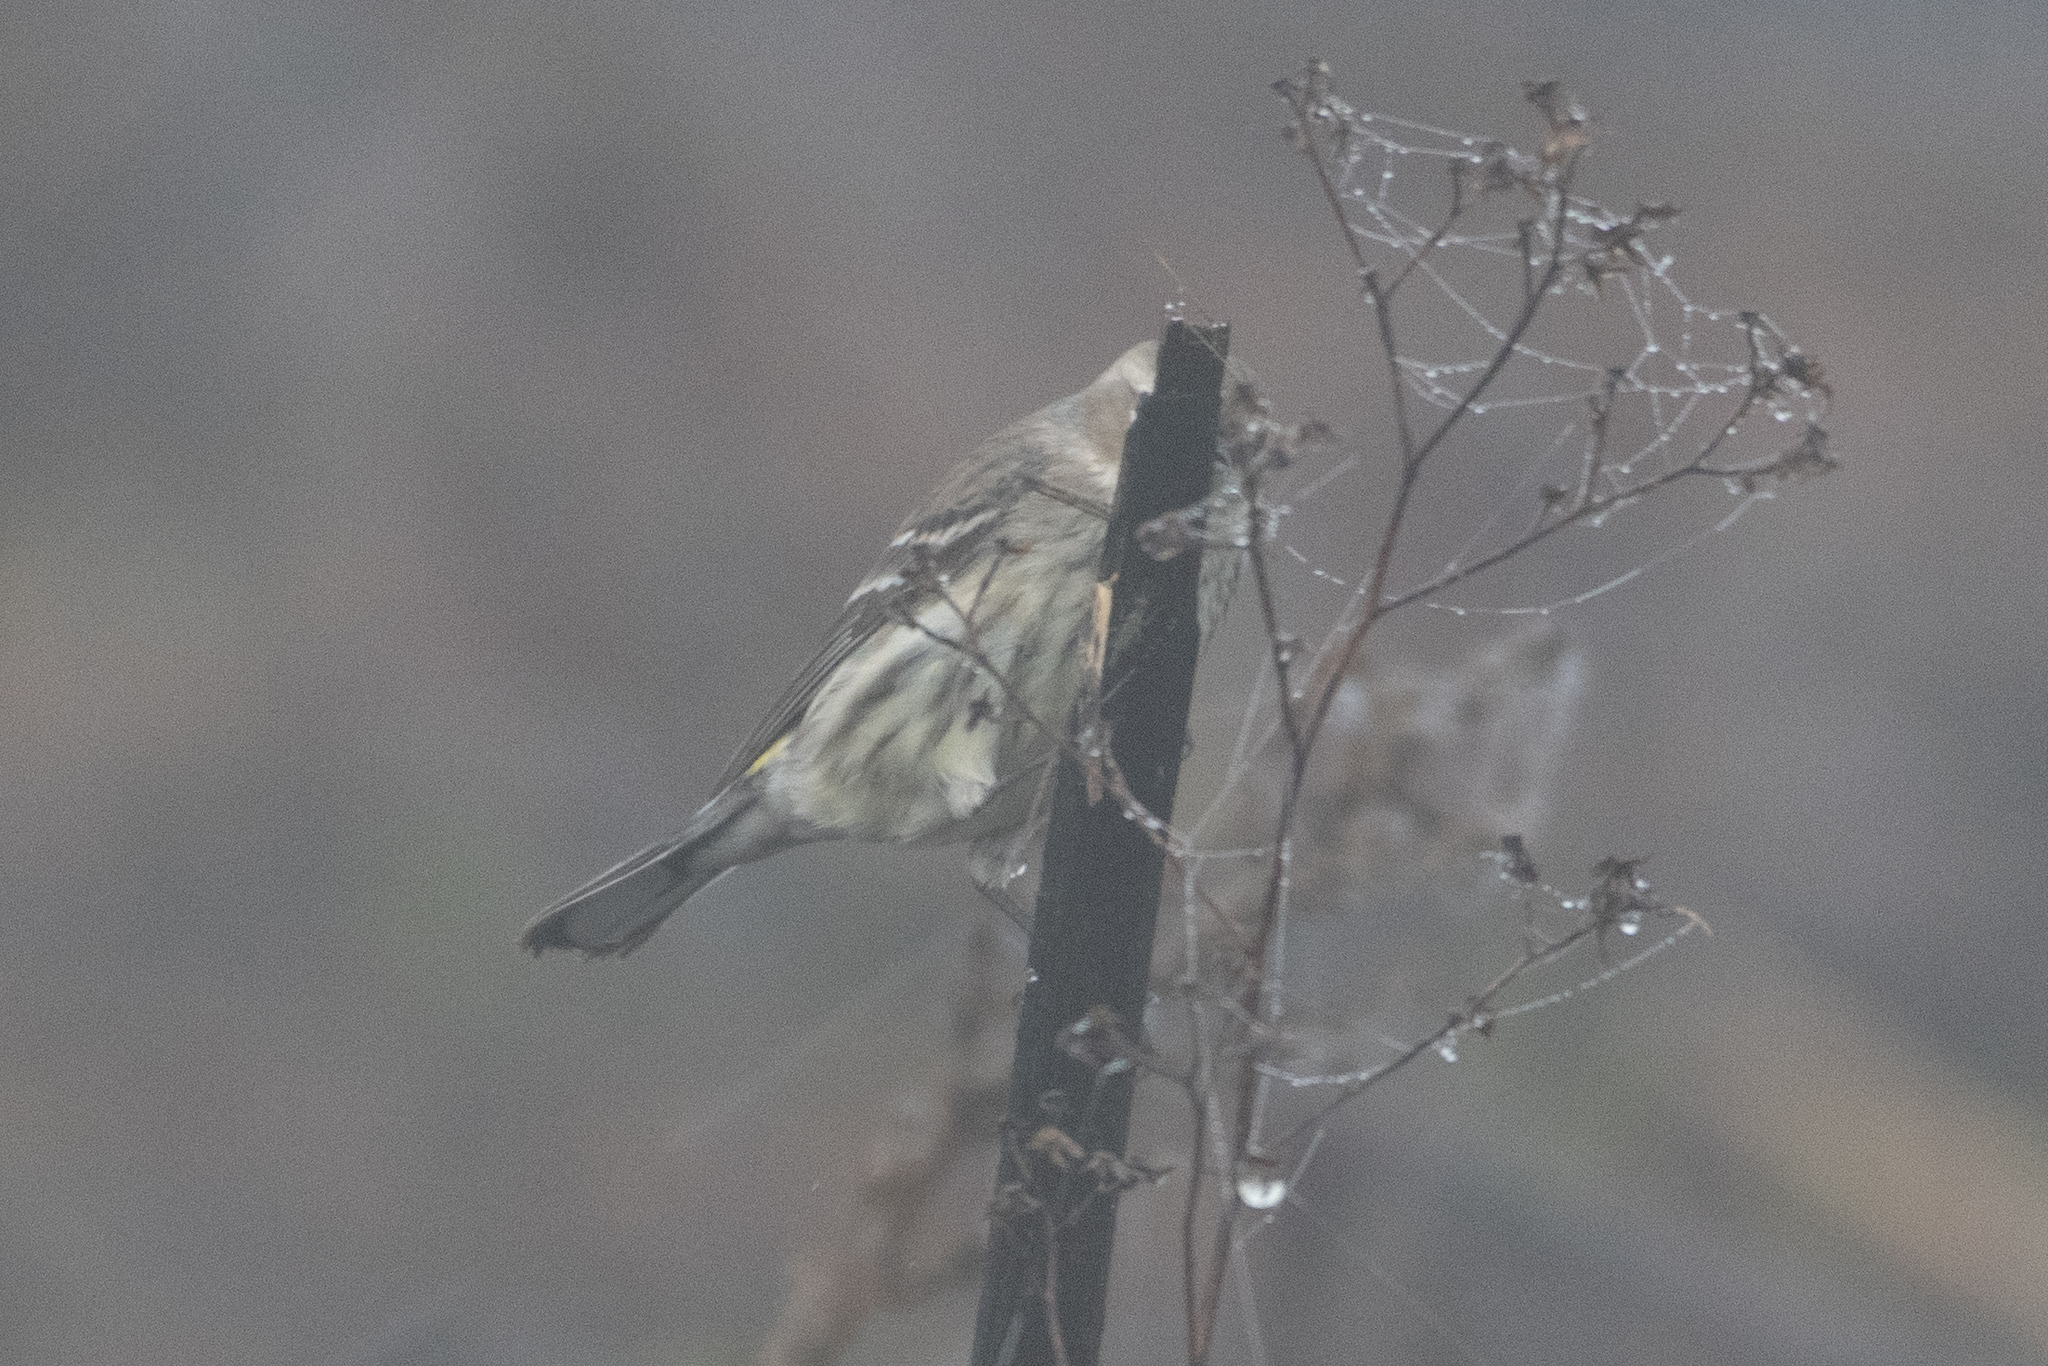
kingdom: Animalia
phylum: Chordata
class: Aves
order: Passeriformes
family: Parulidae
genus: Setophaga
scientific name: Setophaga coronata
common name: Myrtle warbler
